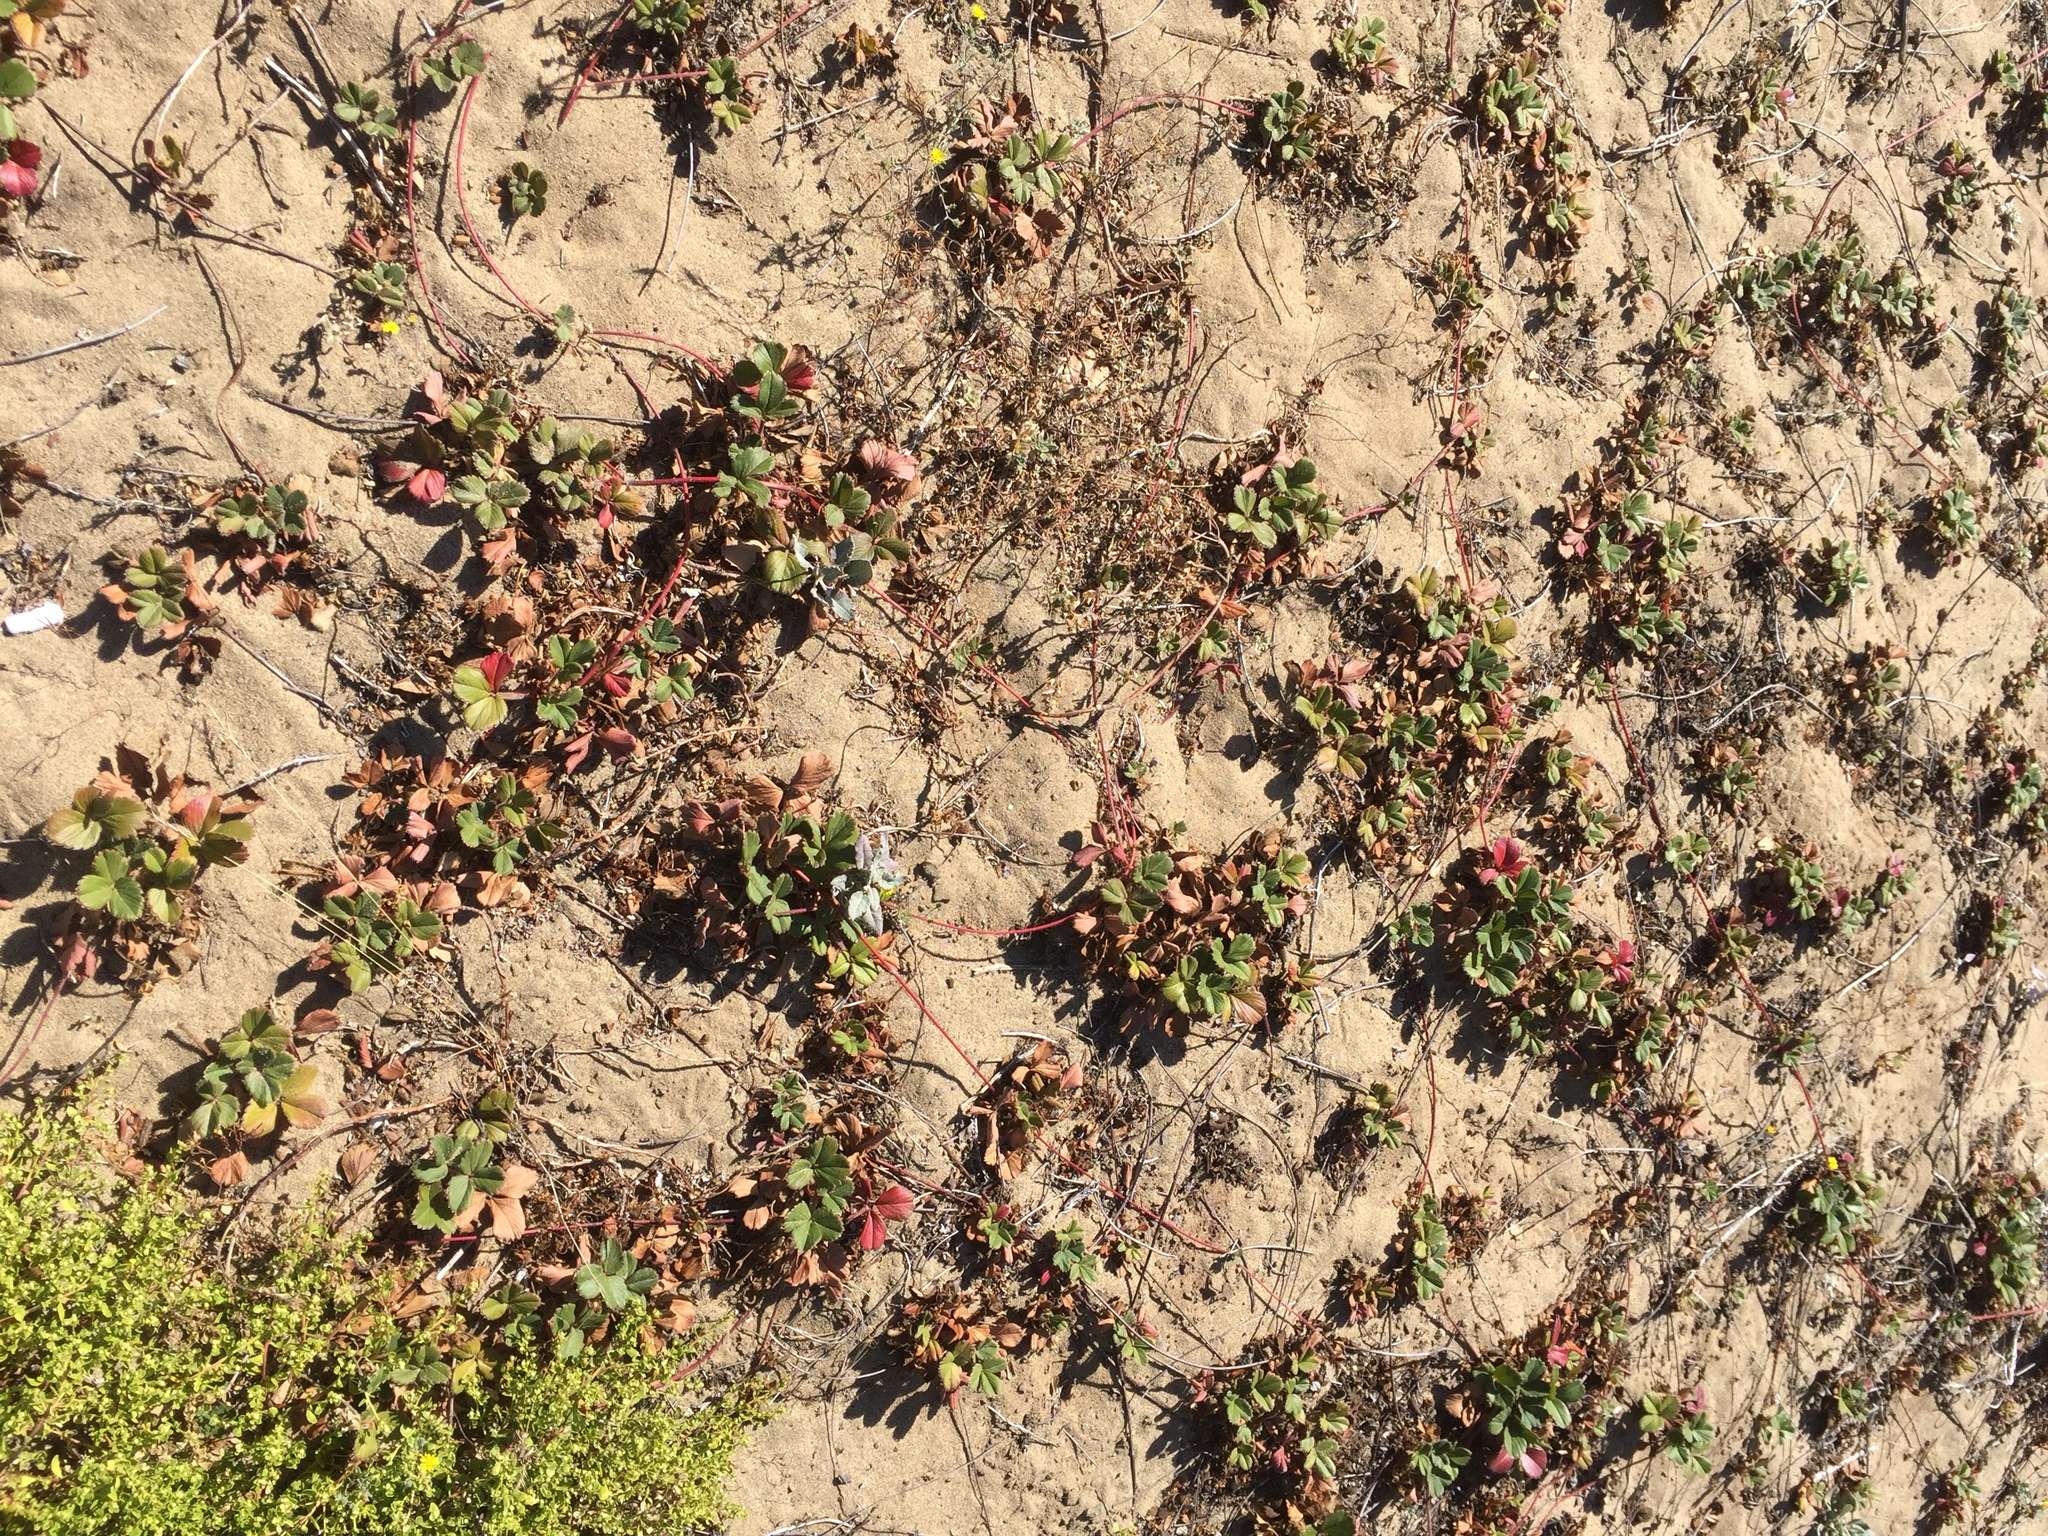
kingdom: Plantae
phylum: Tracheophyta
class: Magnoliopsida
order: Rosales
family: Rosaceae
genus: Fragaria
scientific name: Fragaria chiloensis
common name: Beach strawberry
